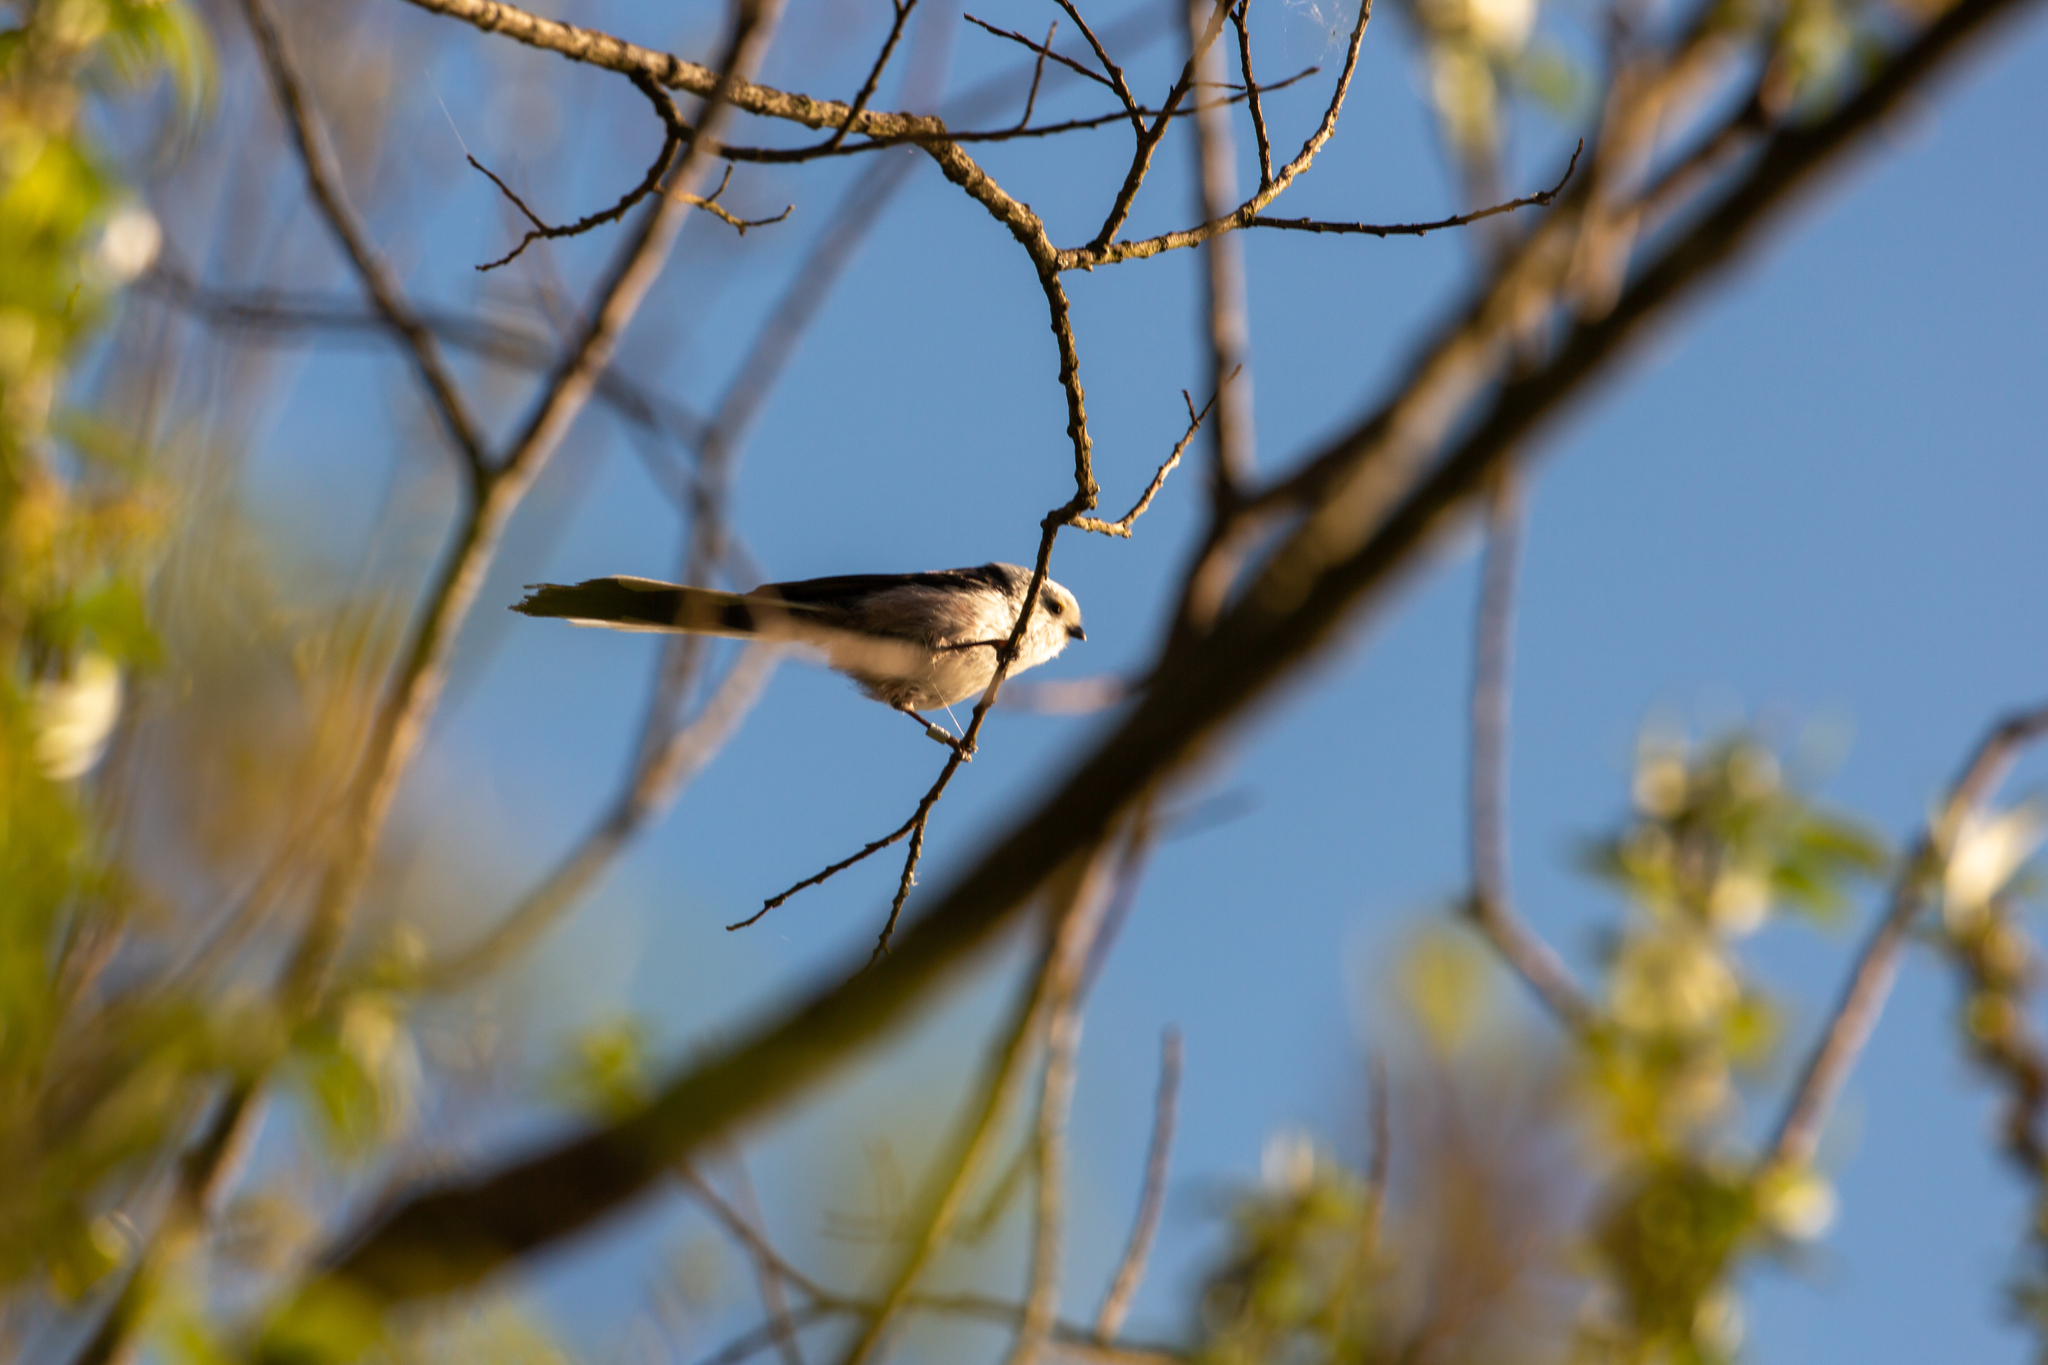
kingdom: Animalia
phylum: Chordata
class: Aves
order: Passeriformes
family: Aegithalidae
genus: Aegithalos
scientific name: Aegithalos caudatus
